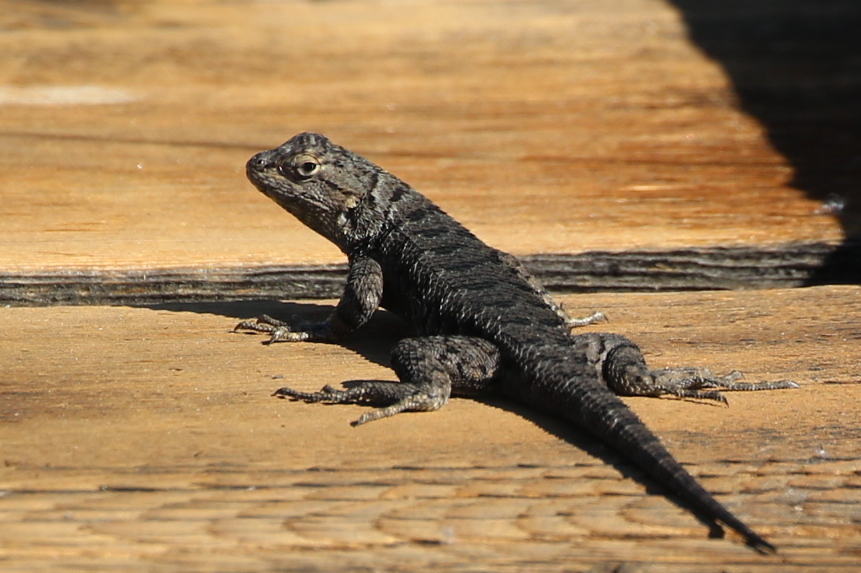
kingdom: Animalia
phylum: Chordata
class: Squamata
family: Phrynosomatidae
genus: Sceloporus
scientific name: Sceloporus occidentalis
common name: Western fence lizard
